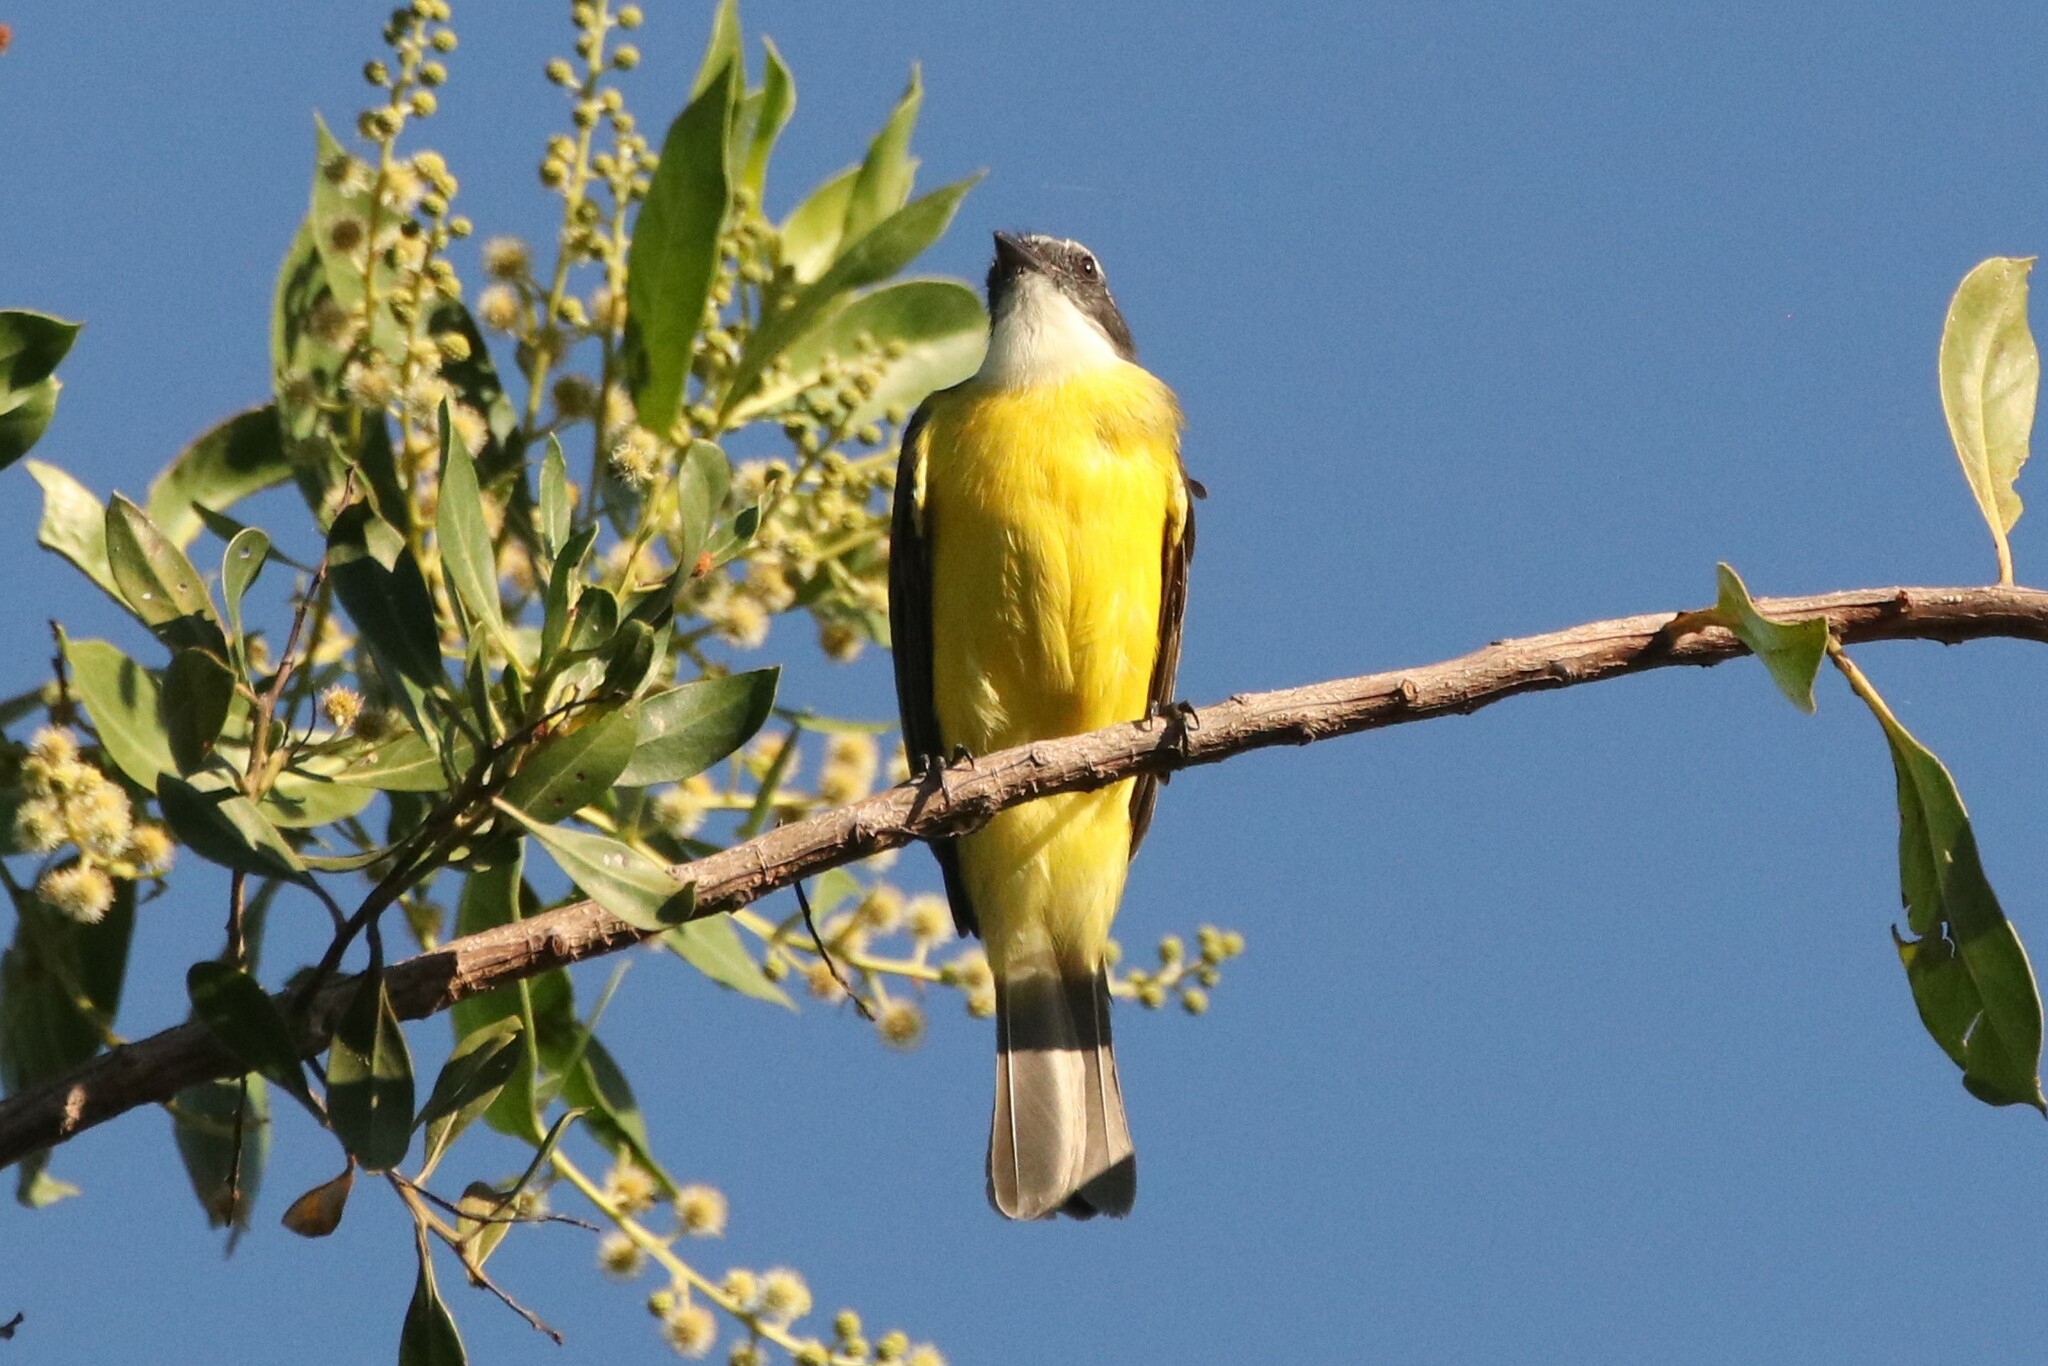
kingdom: Animalia
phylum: Chordata
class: Aves
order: Passeriformes
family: Tyrannidae
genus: Myiozetetes
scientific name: Myiozetetes similis
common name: Social flycatcher
